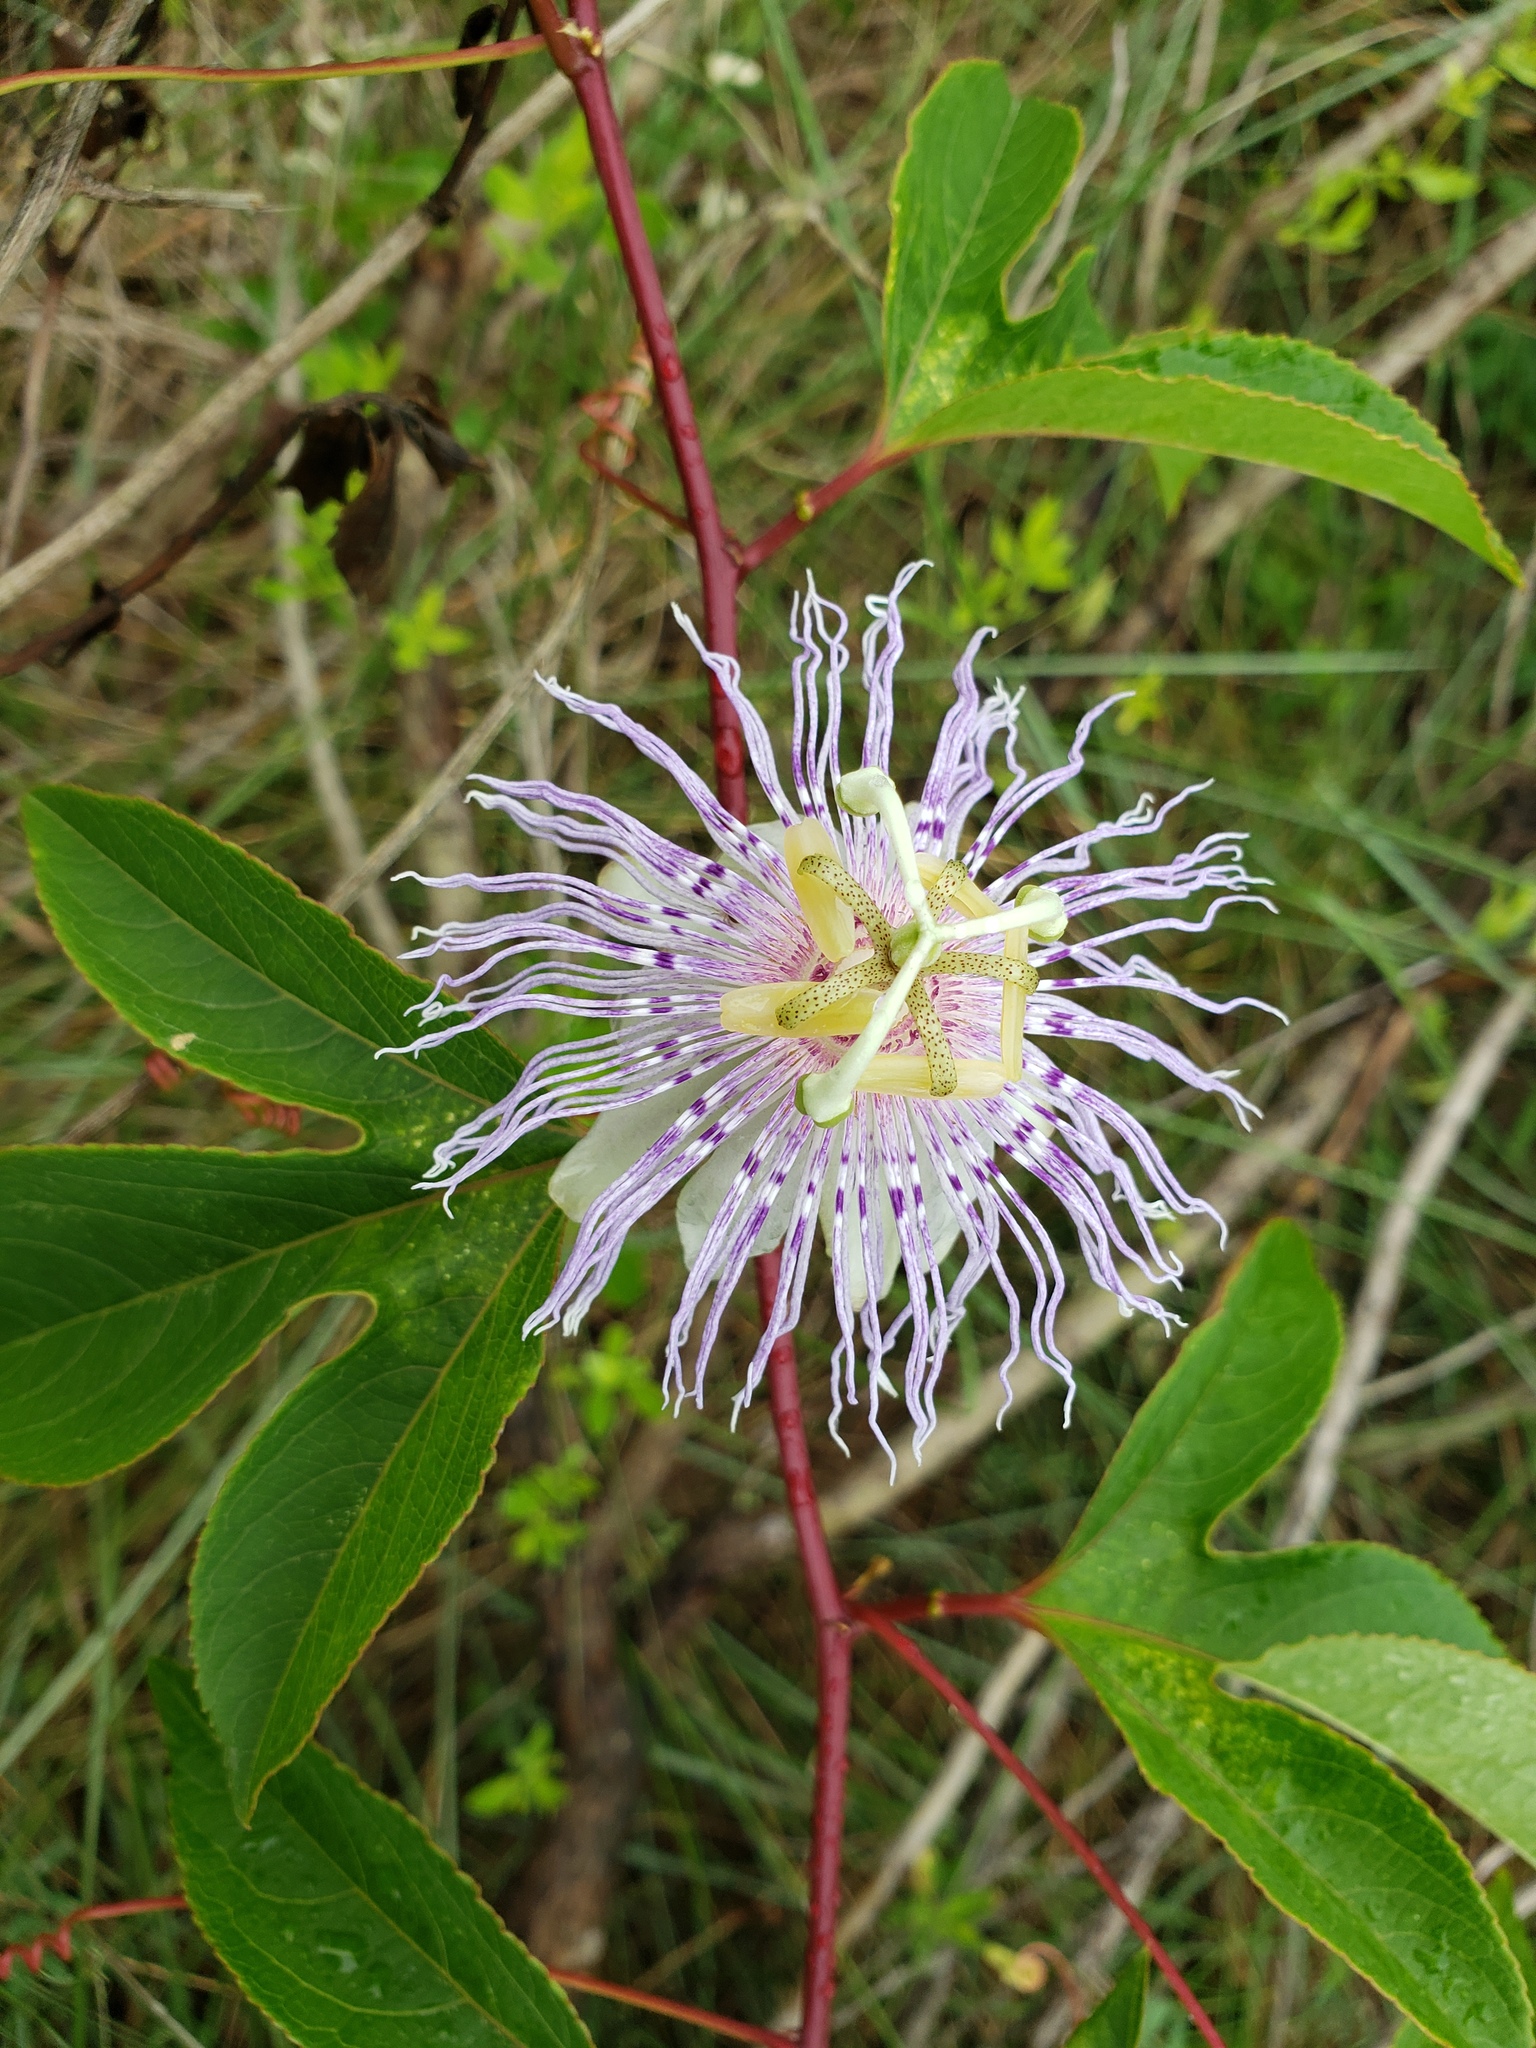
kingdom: Plantae
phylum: Tracheophyta
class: Magnoliopsida
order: Malpighiales
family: Passifloraceae
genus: Passiflora
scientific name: Passiflora incarnata
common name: Apricot-vine
